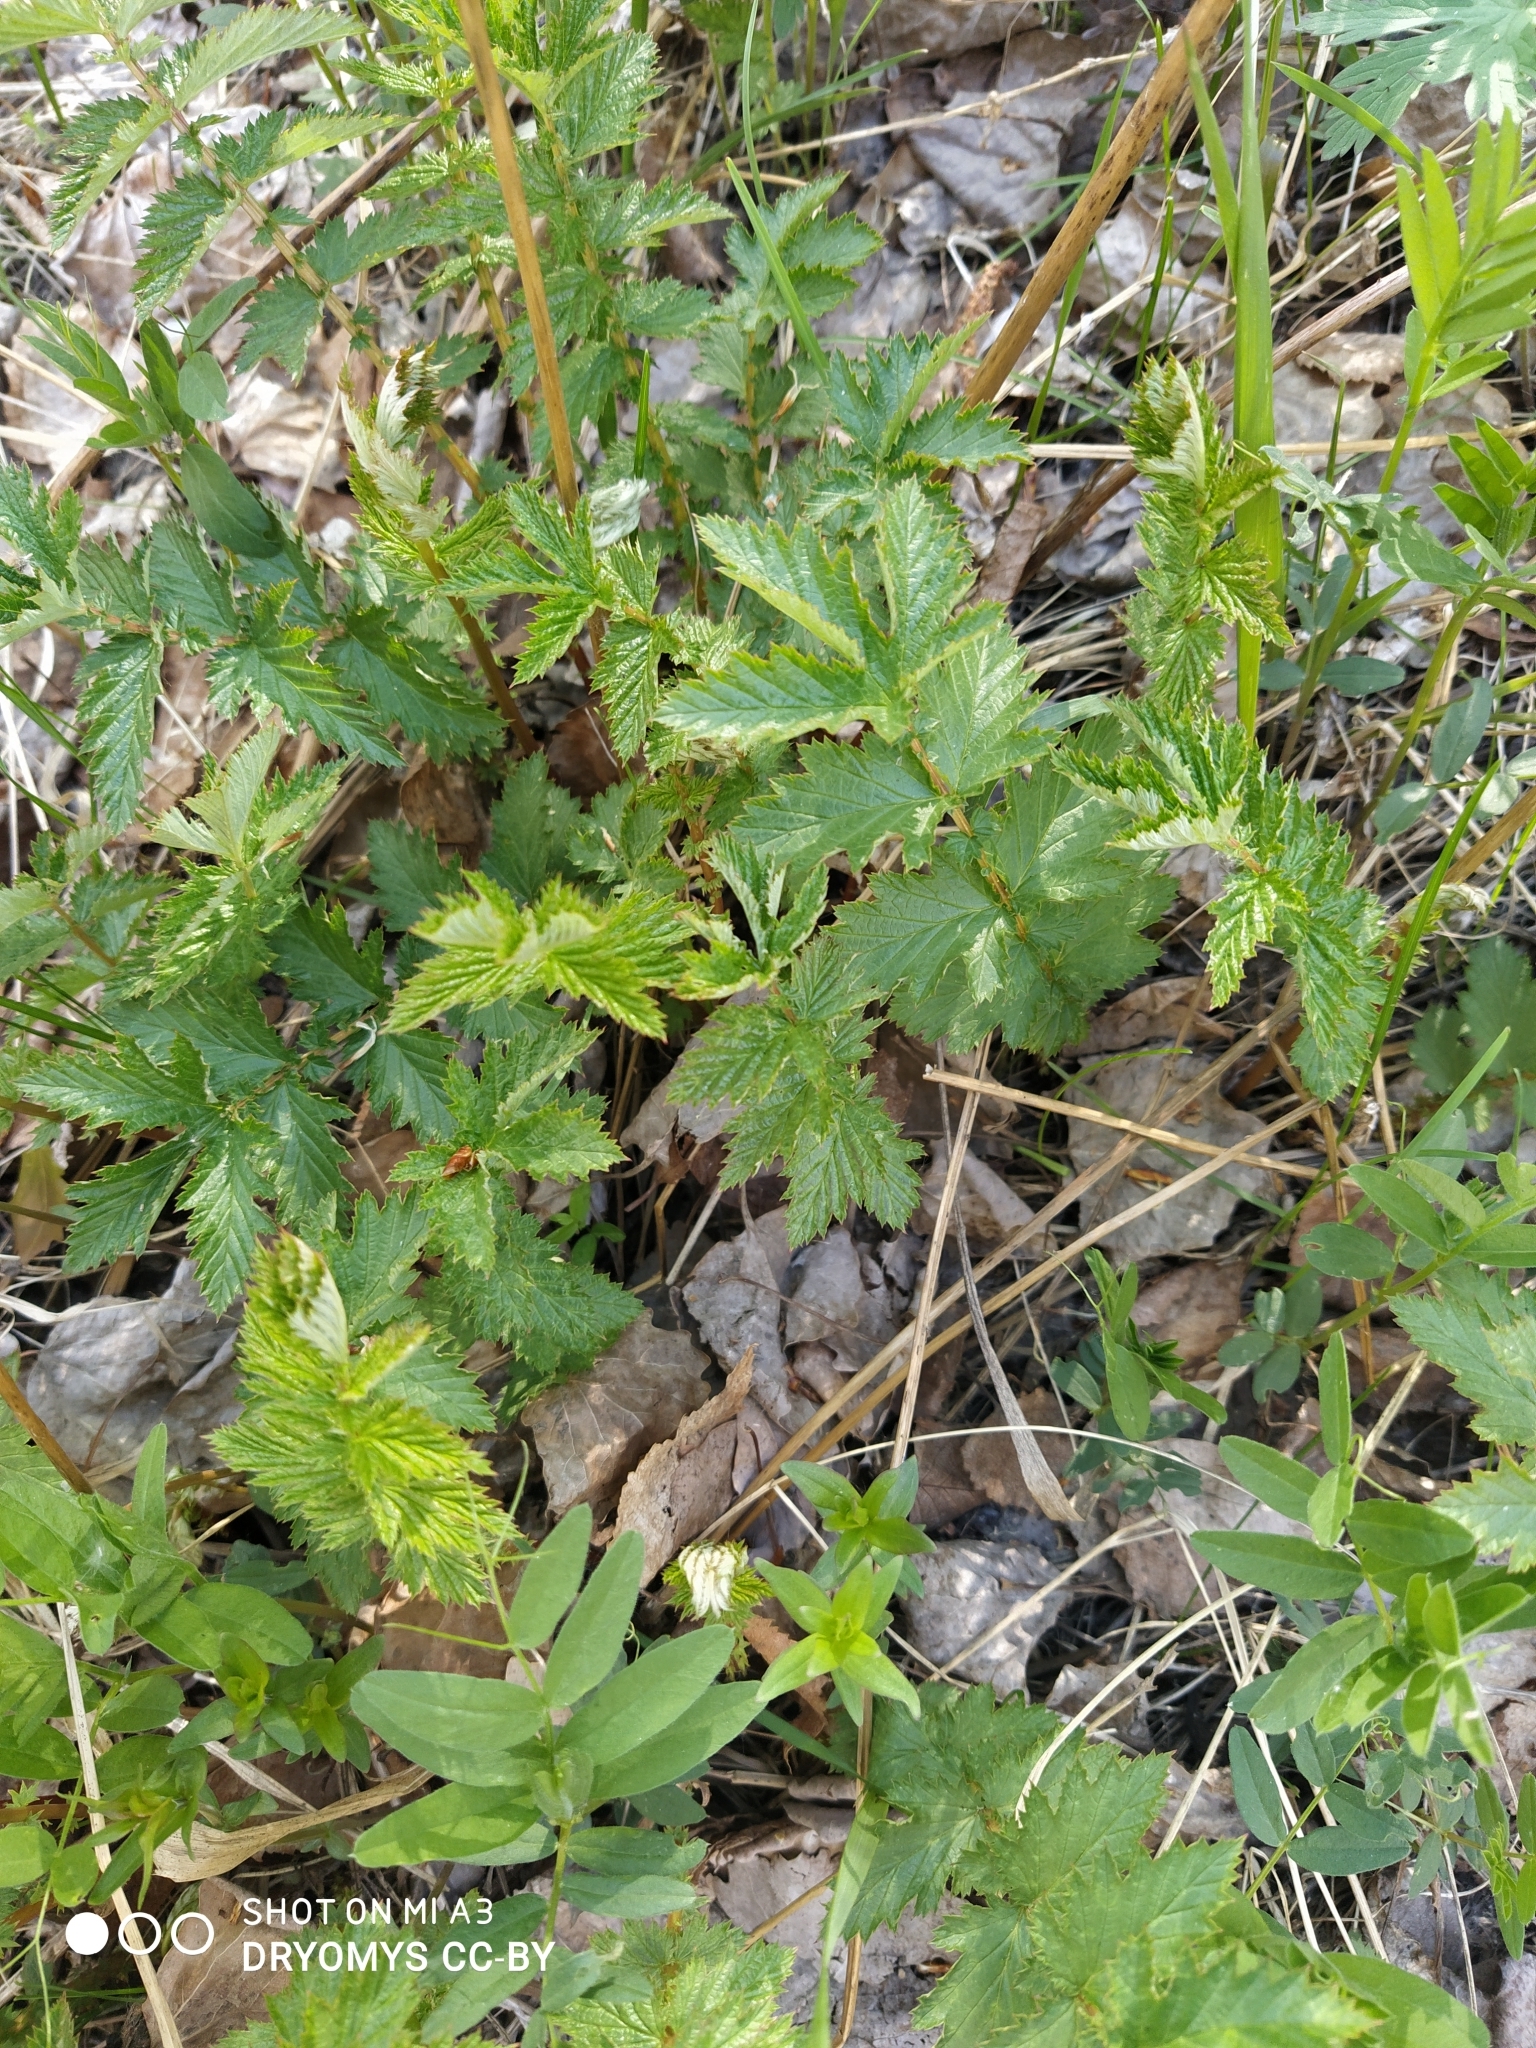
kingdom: Plantae
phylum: Tracheophyta
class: Magnoliopsida
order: Rosales
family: Rosaceae
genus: Filipendula
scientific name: Filipendula vulgaris
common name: Dropwort
